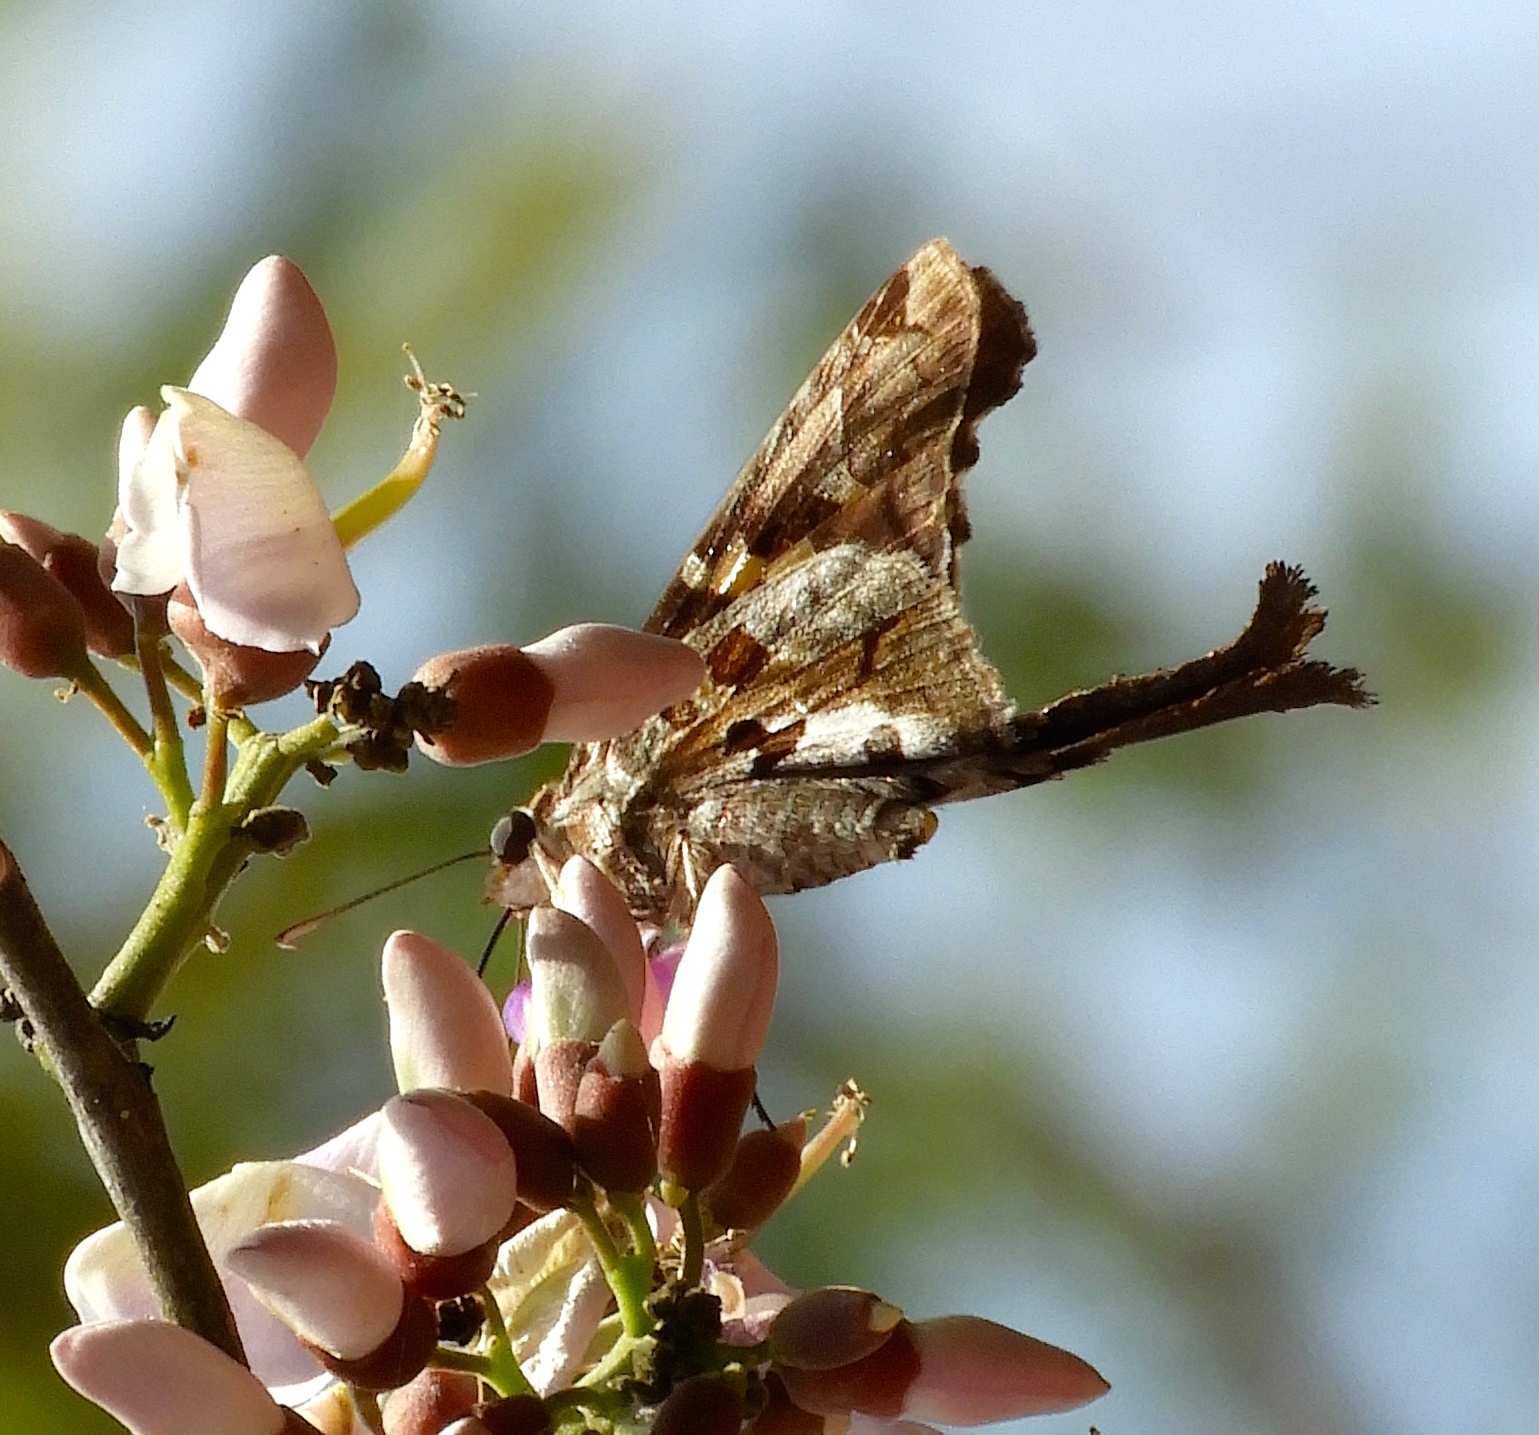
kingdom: Animalia
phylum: Arthropoda
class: Insecta
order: Lepidoptera
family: Hesperiidae
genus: Chioides
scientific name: Chioides zilpa
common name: Zilpa longtail
